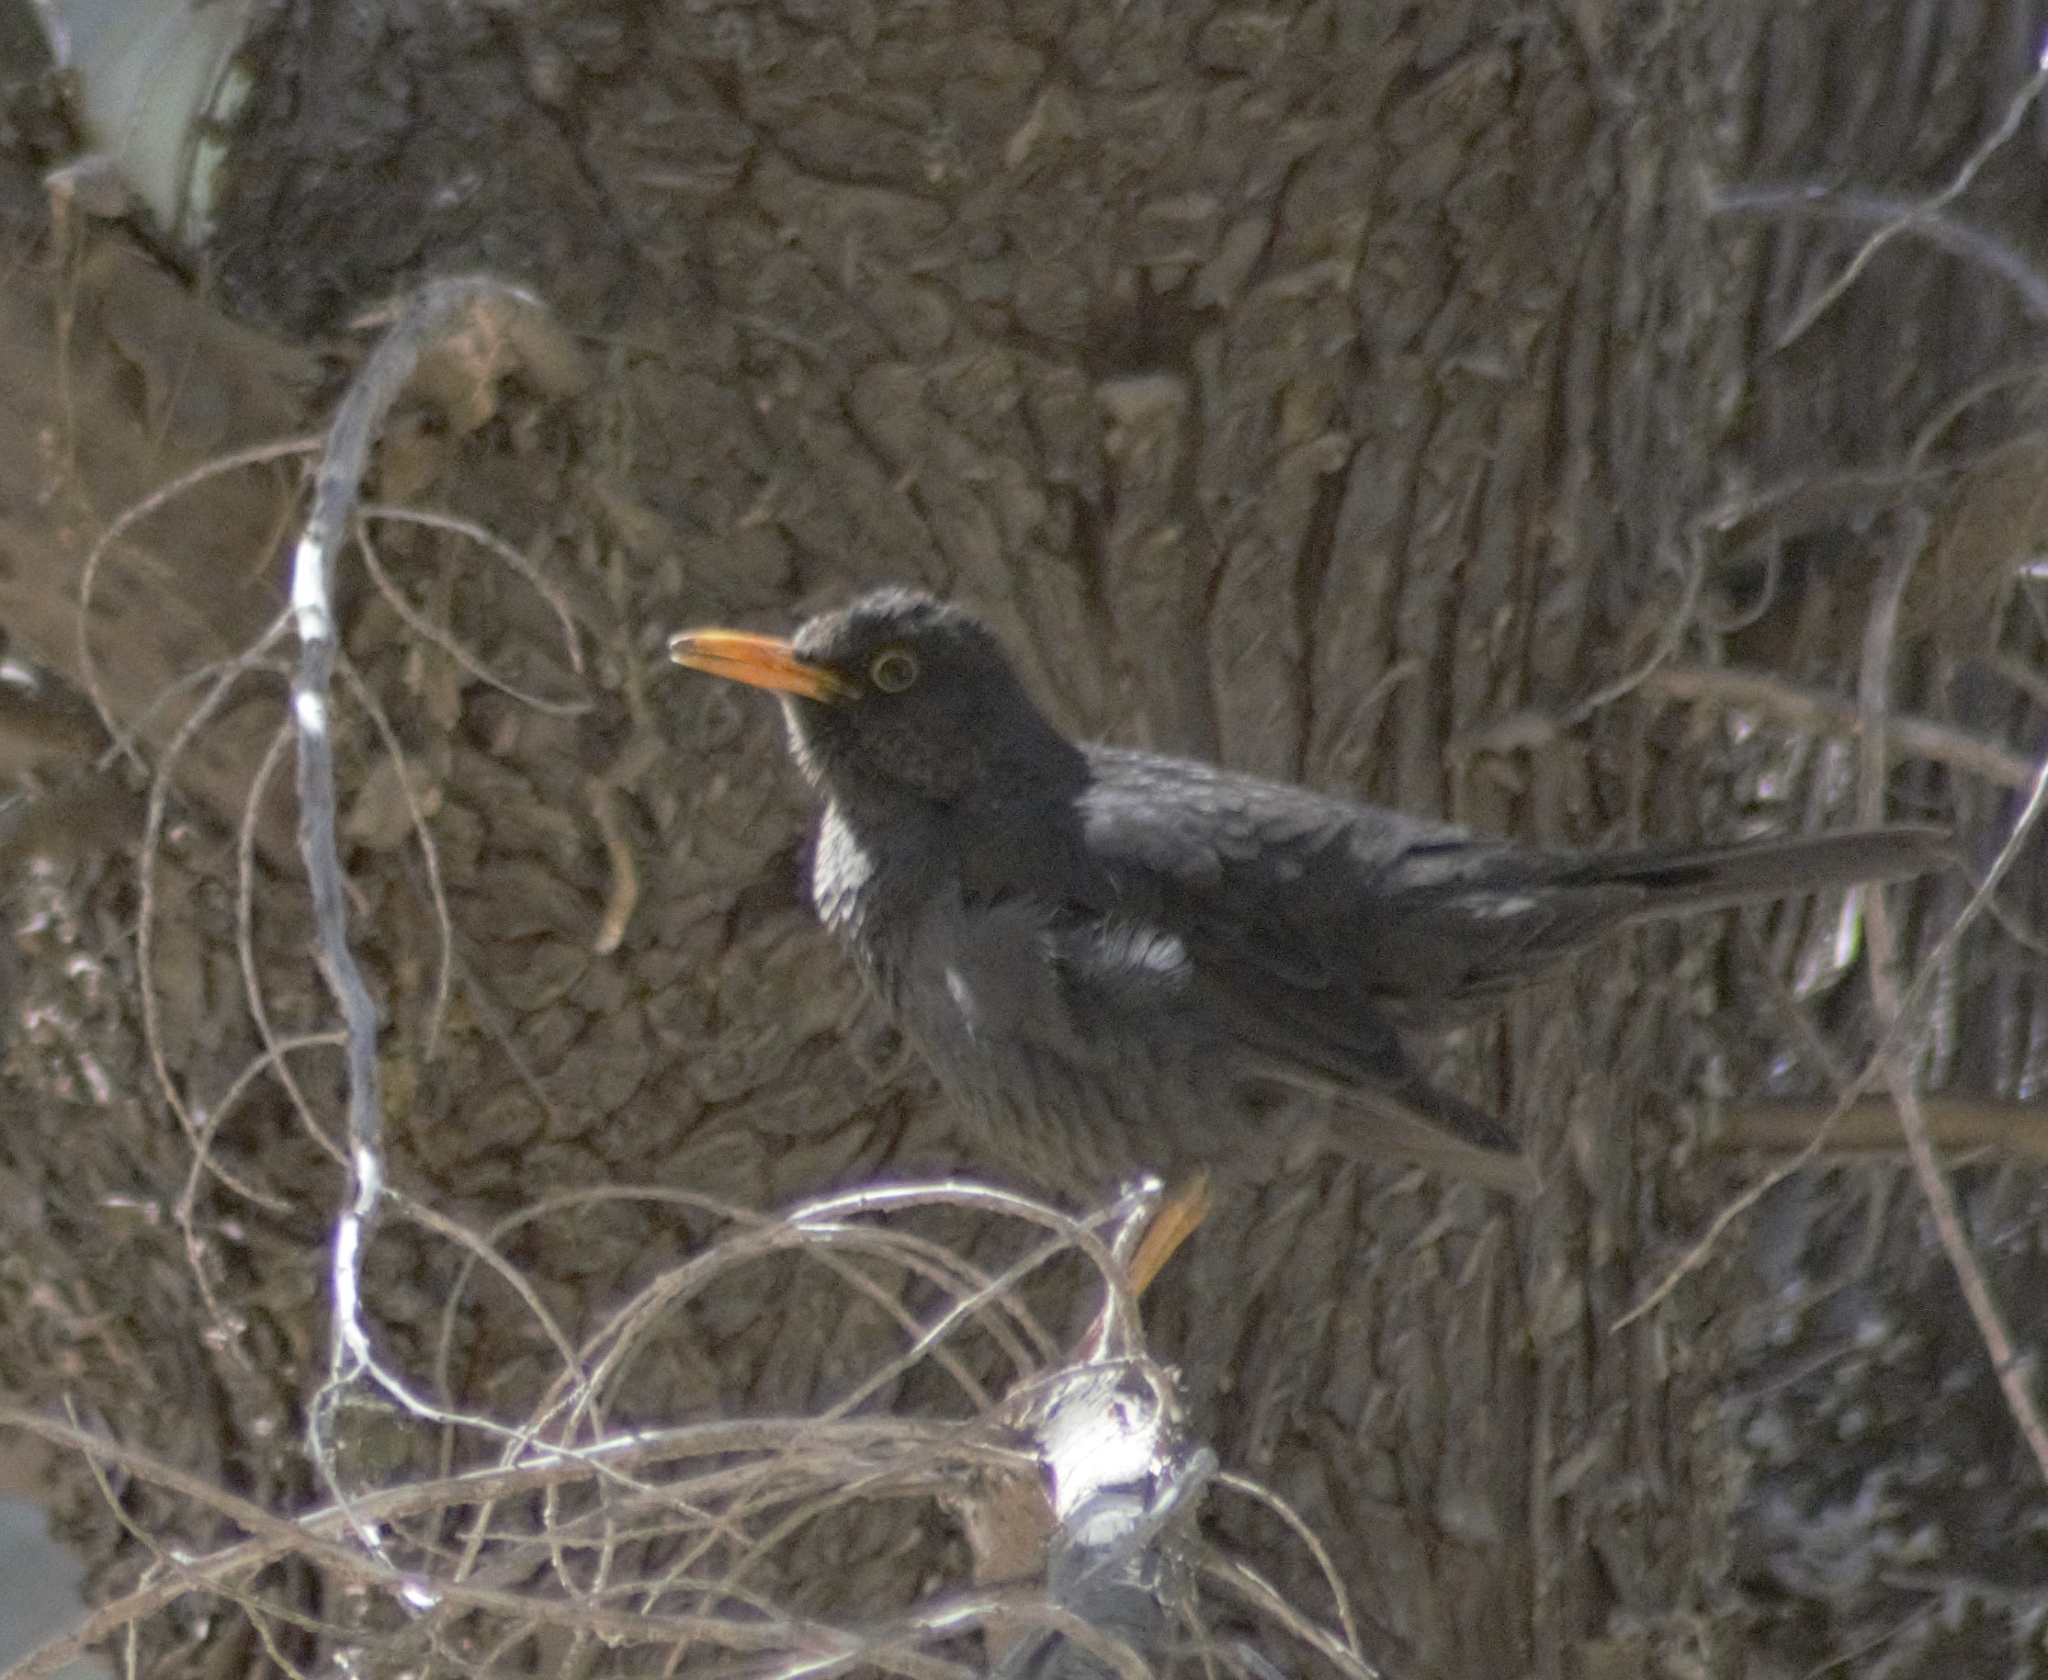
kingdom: Animalia
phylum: Chordata
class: Aves
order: Passeriformes
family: Turdidae
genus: Turdus
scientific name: Turdus chiguanco
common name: Chiguanco thrush
